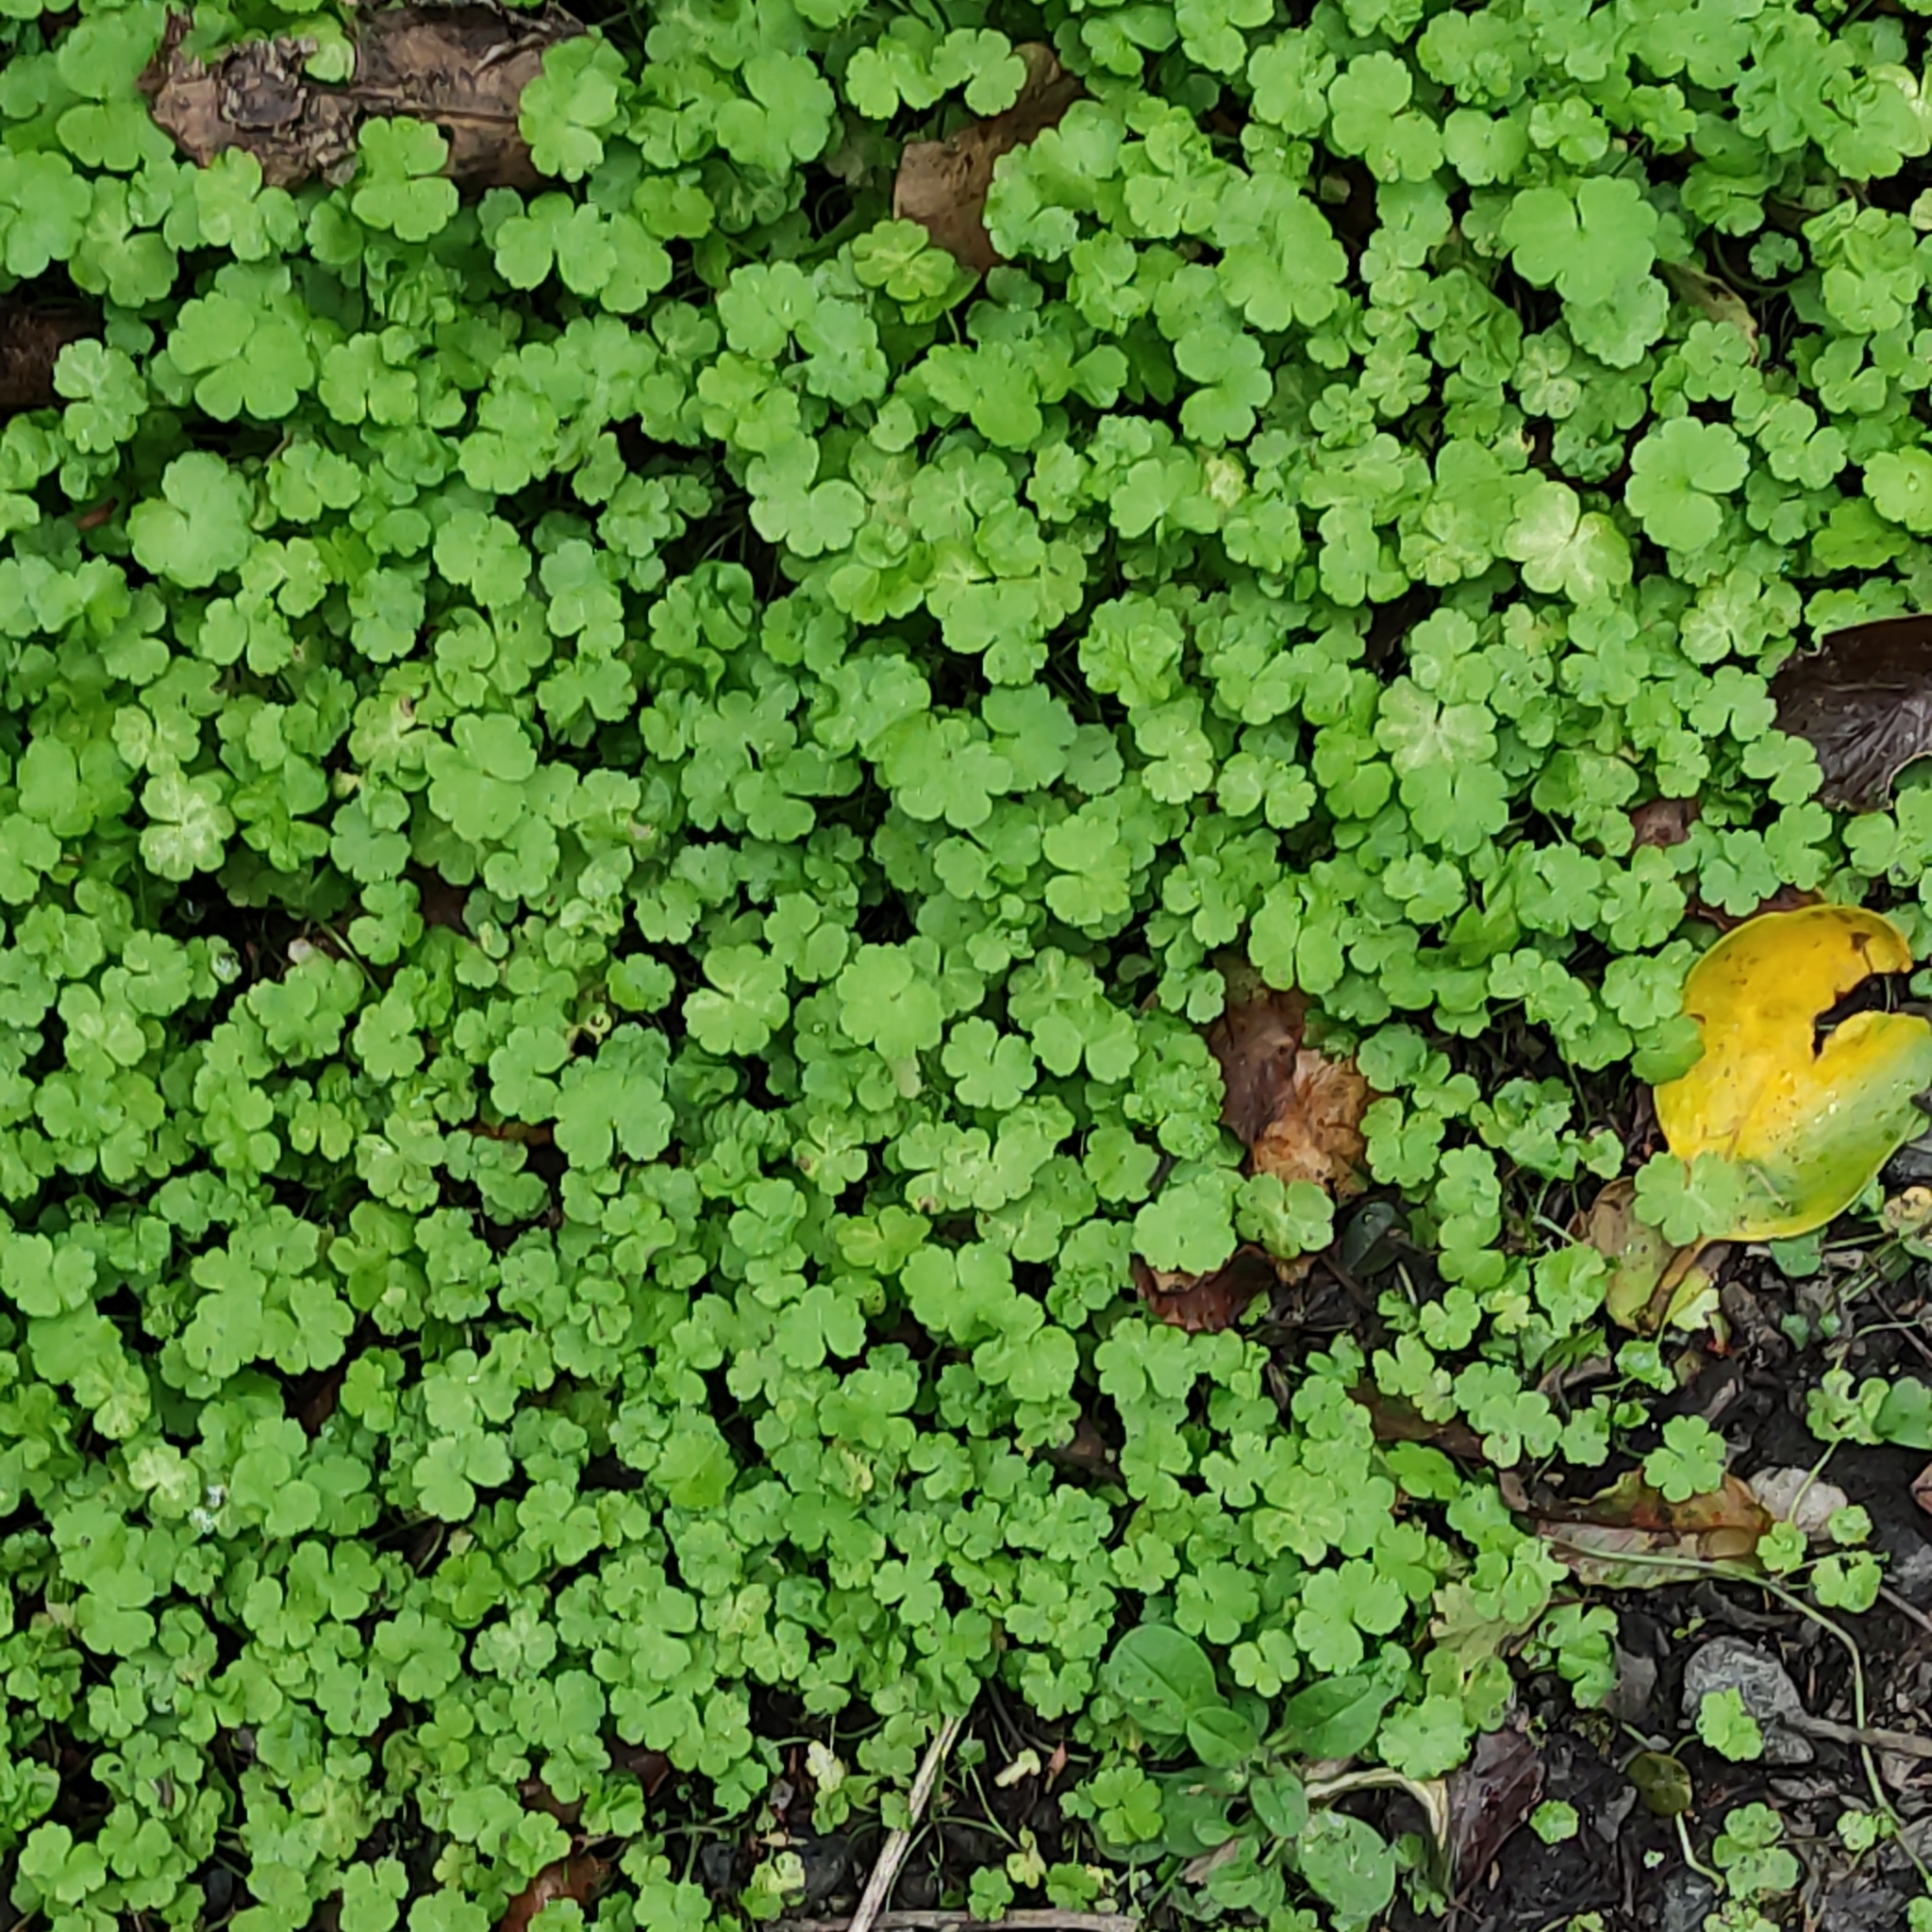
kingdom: Plantae
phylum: Tracheophyta
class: Magnoliopsida
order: Apiales
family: Araliaceae
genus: Hydrocotyle
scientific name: Hydrocotyle heteromeria
